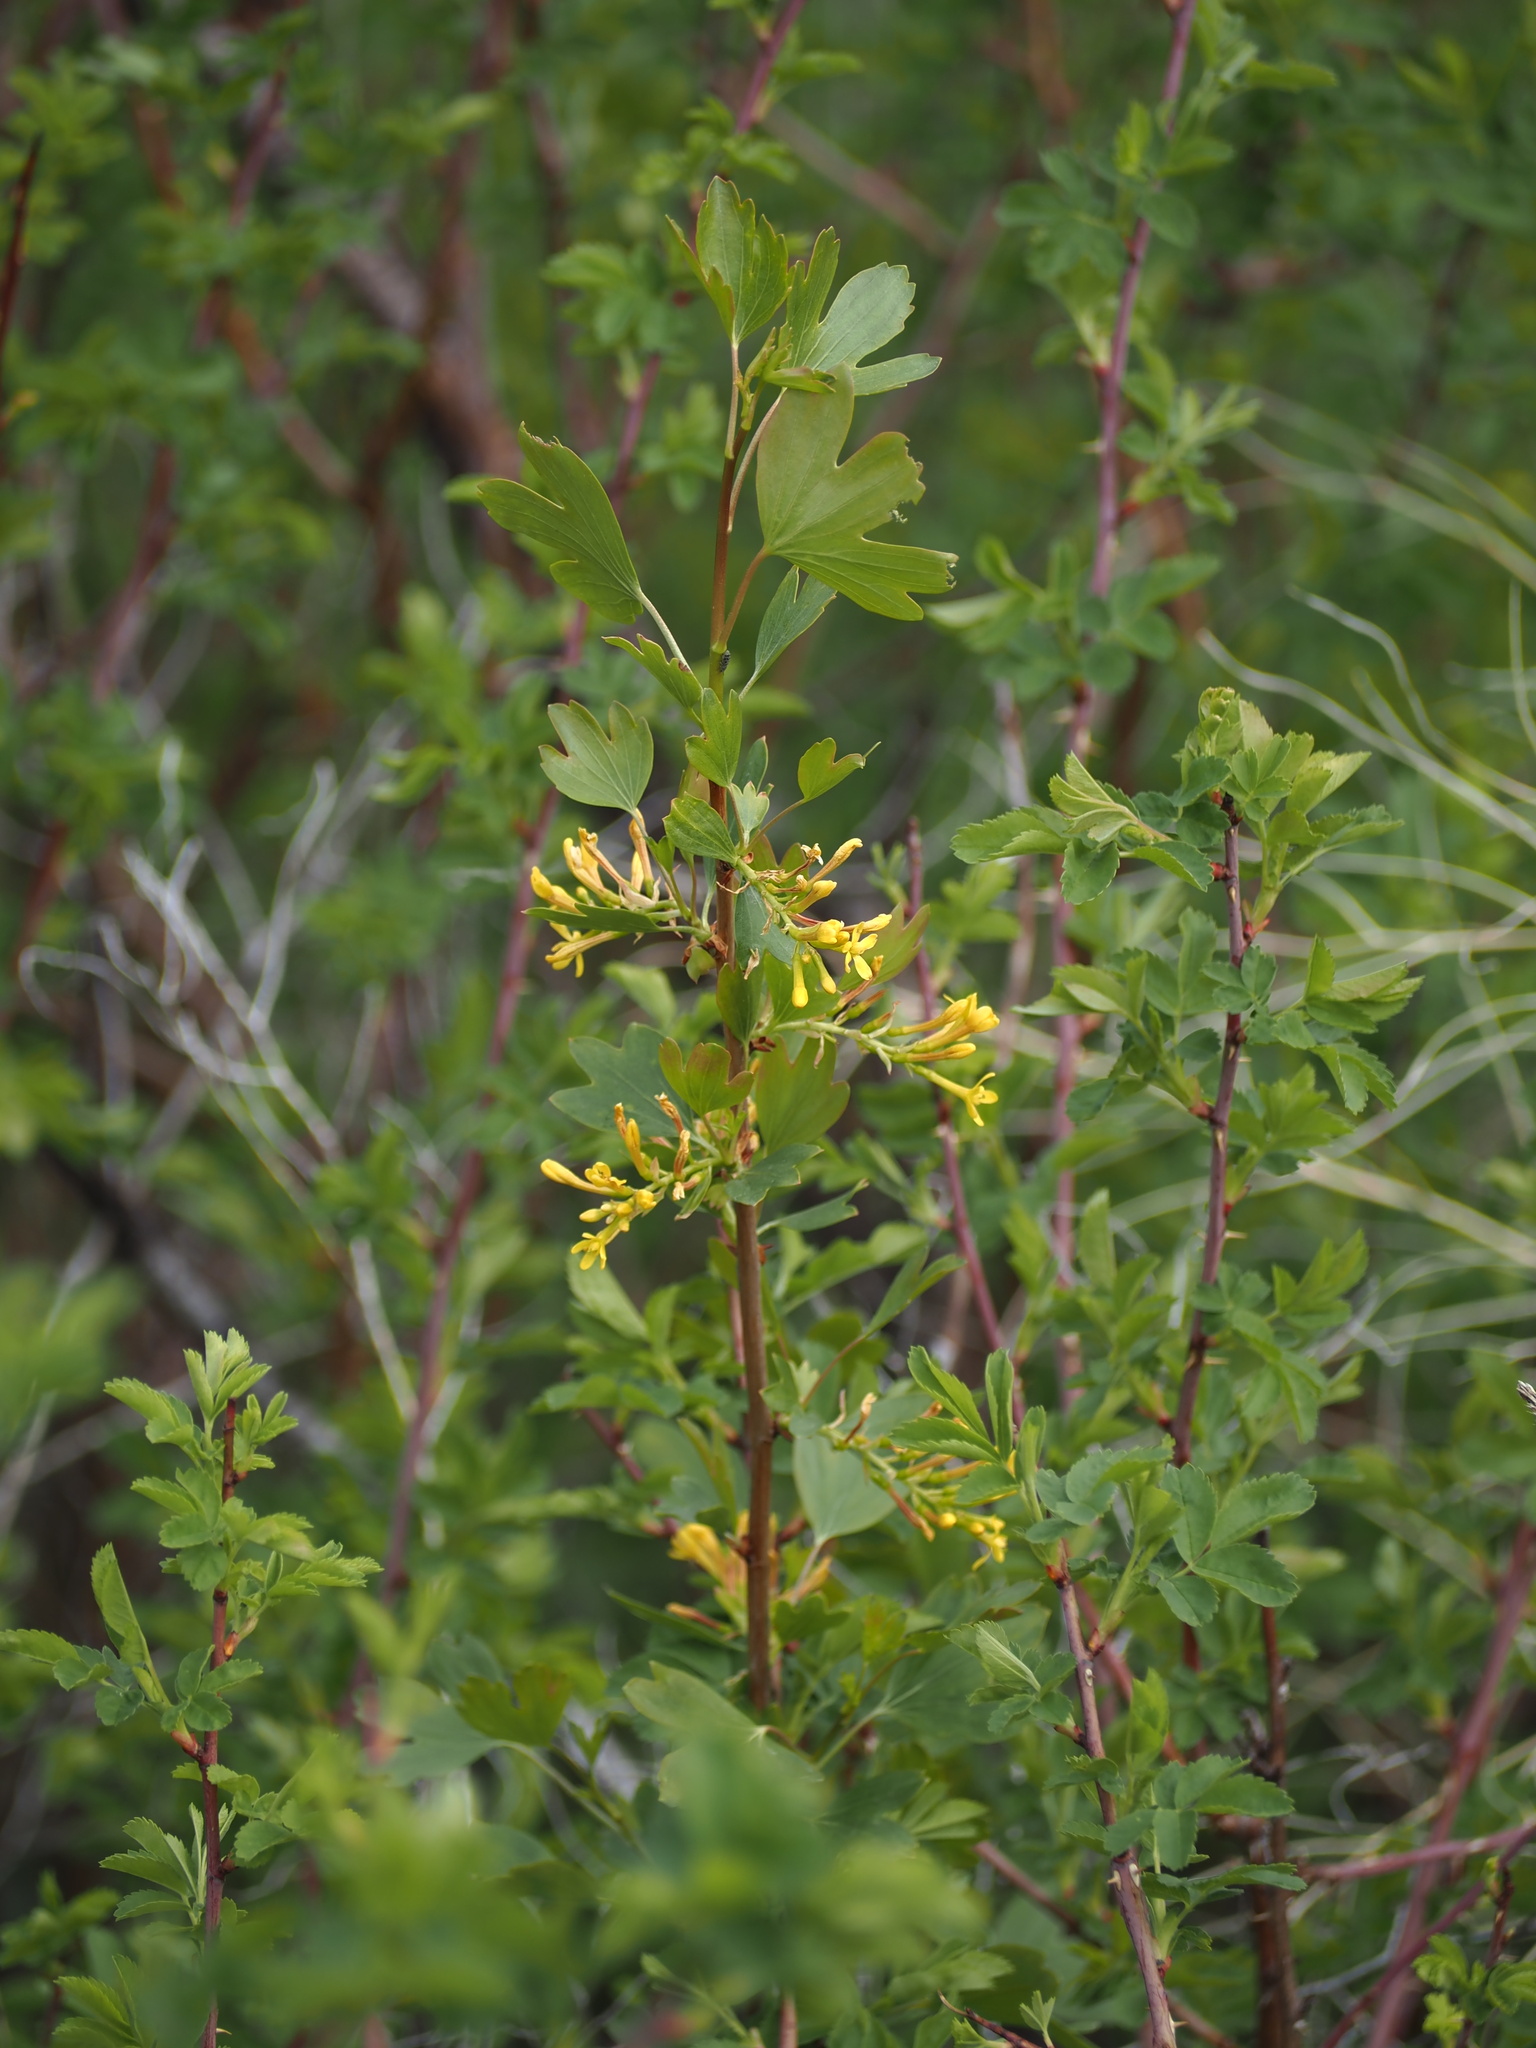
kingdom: Plantae
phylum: Tracheophyta
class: Magnoliopsida
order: Saxifragales
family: Grossulariaceae
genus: Ribes
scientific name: Ribes aureum
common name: Golden currant
